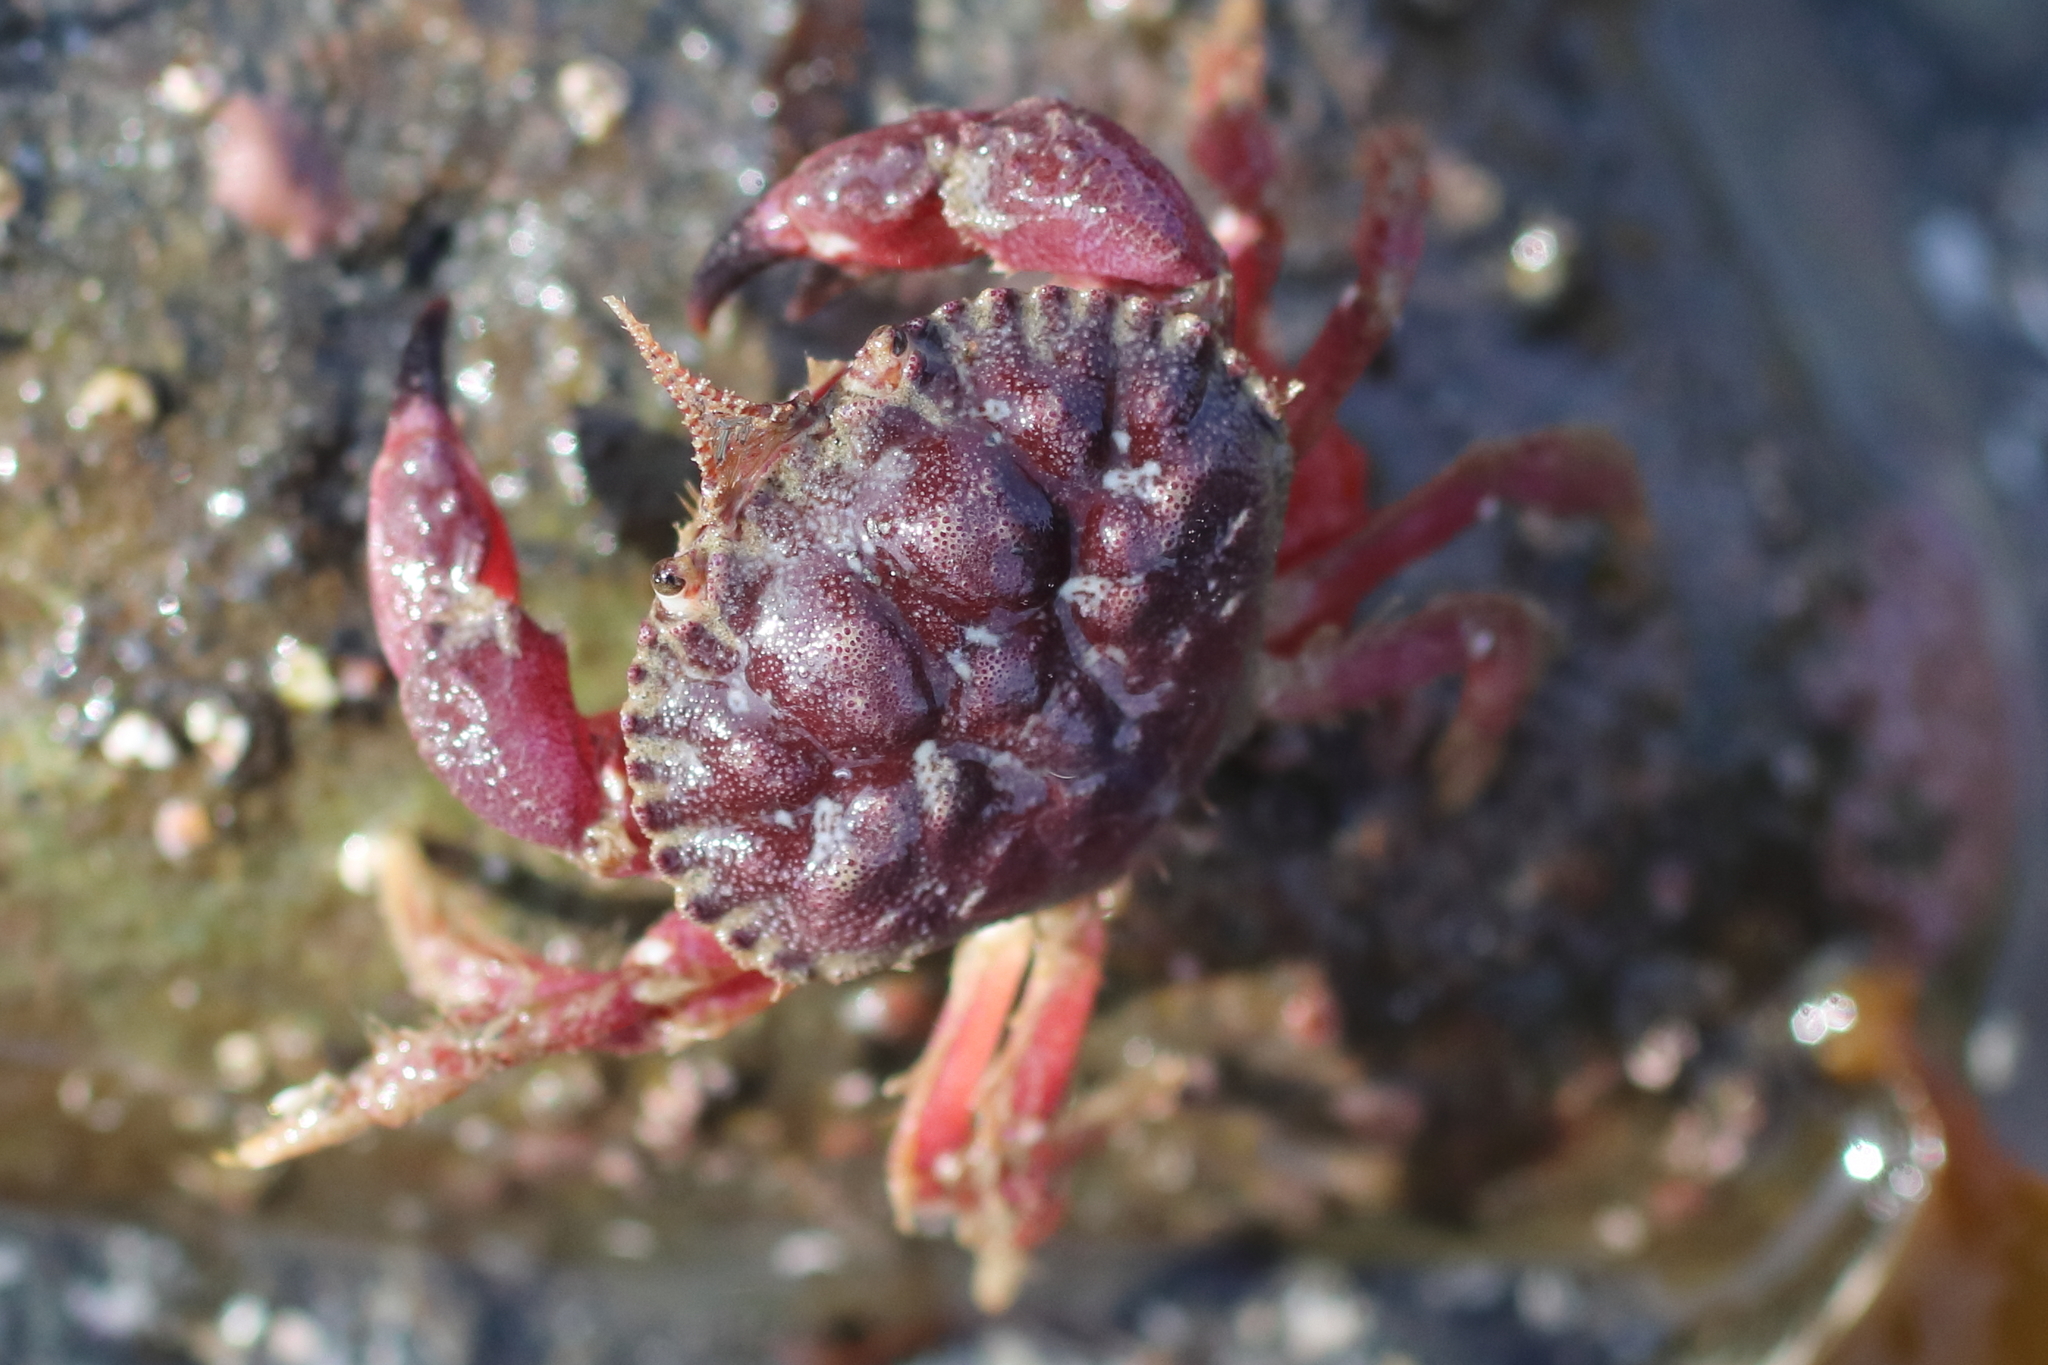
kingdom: Animalia
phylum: Arthropoda
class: Malacostraca
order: Decapoda
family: Cancridae
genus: Glebocarcinus
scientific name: Glebocarcinus oregonensis
